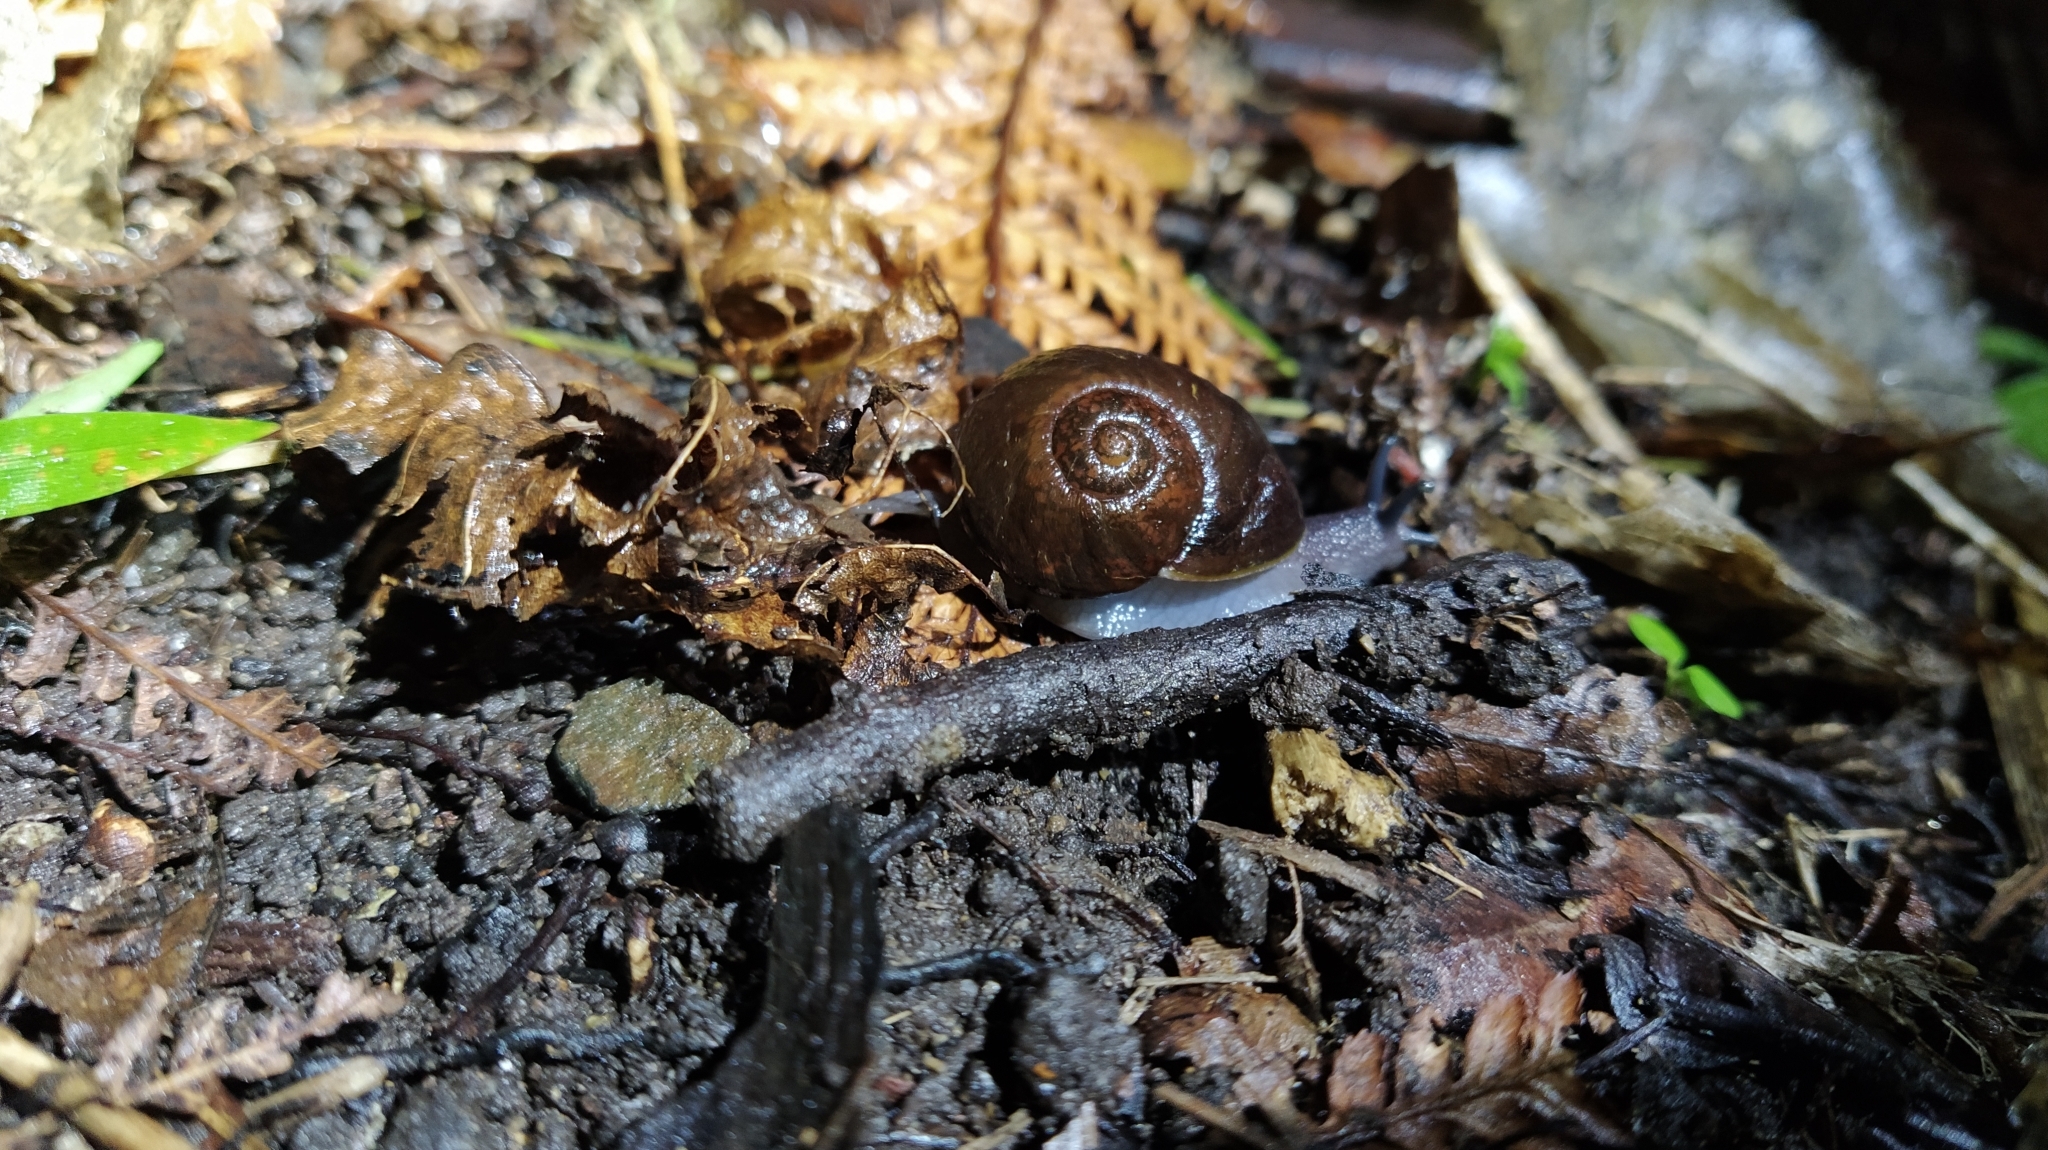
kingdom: Animalia
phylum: Mollusca
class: Gastropoda
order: Stylommatophora
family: Rhytididae
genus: Rhytida
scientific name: Rhytida greenwoodi
